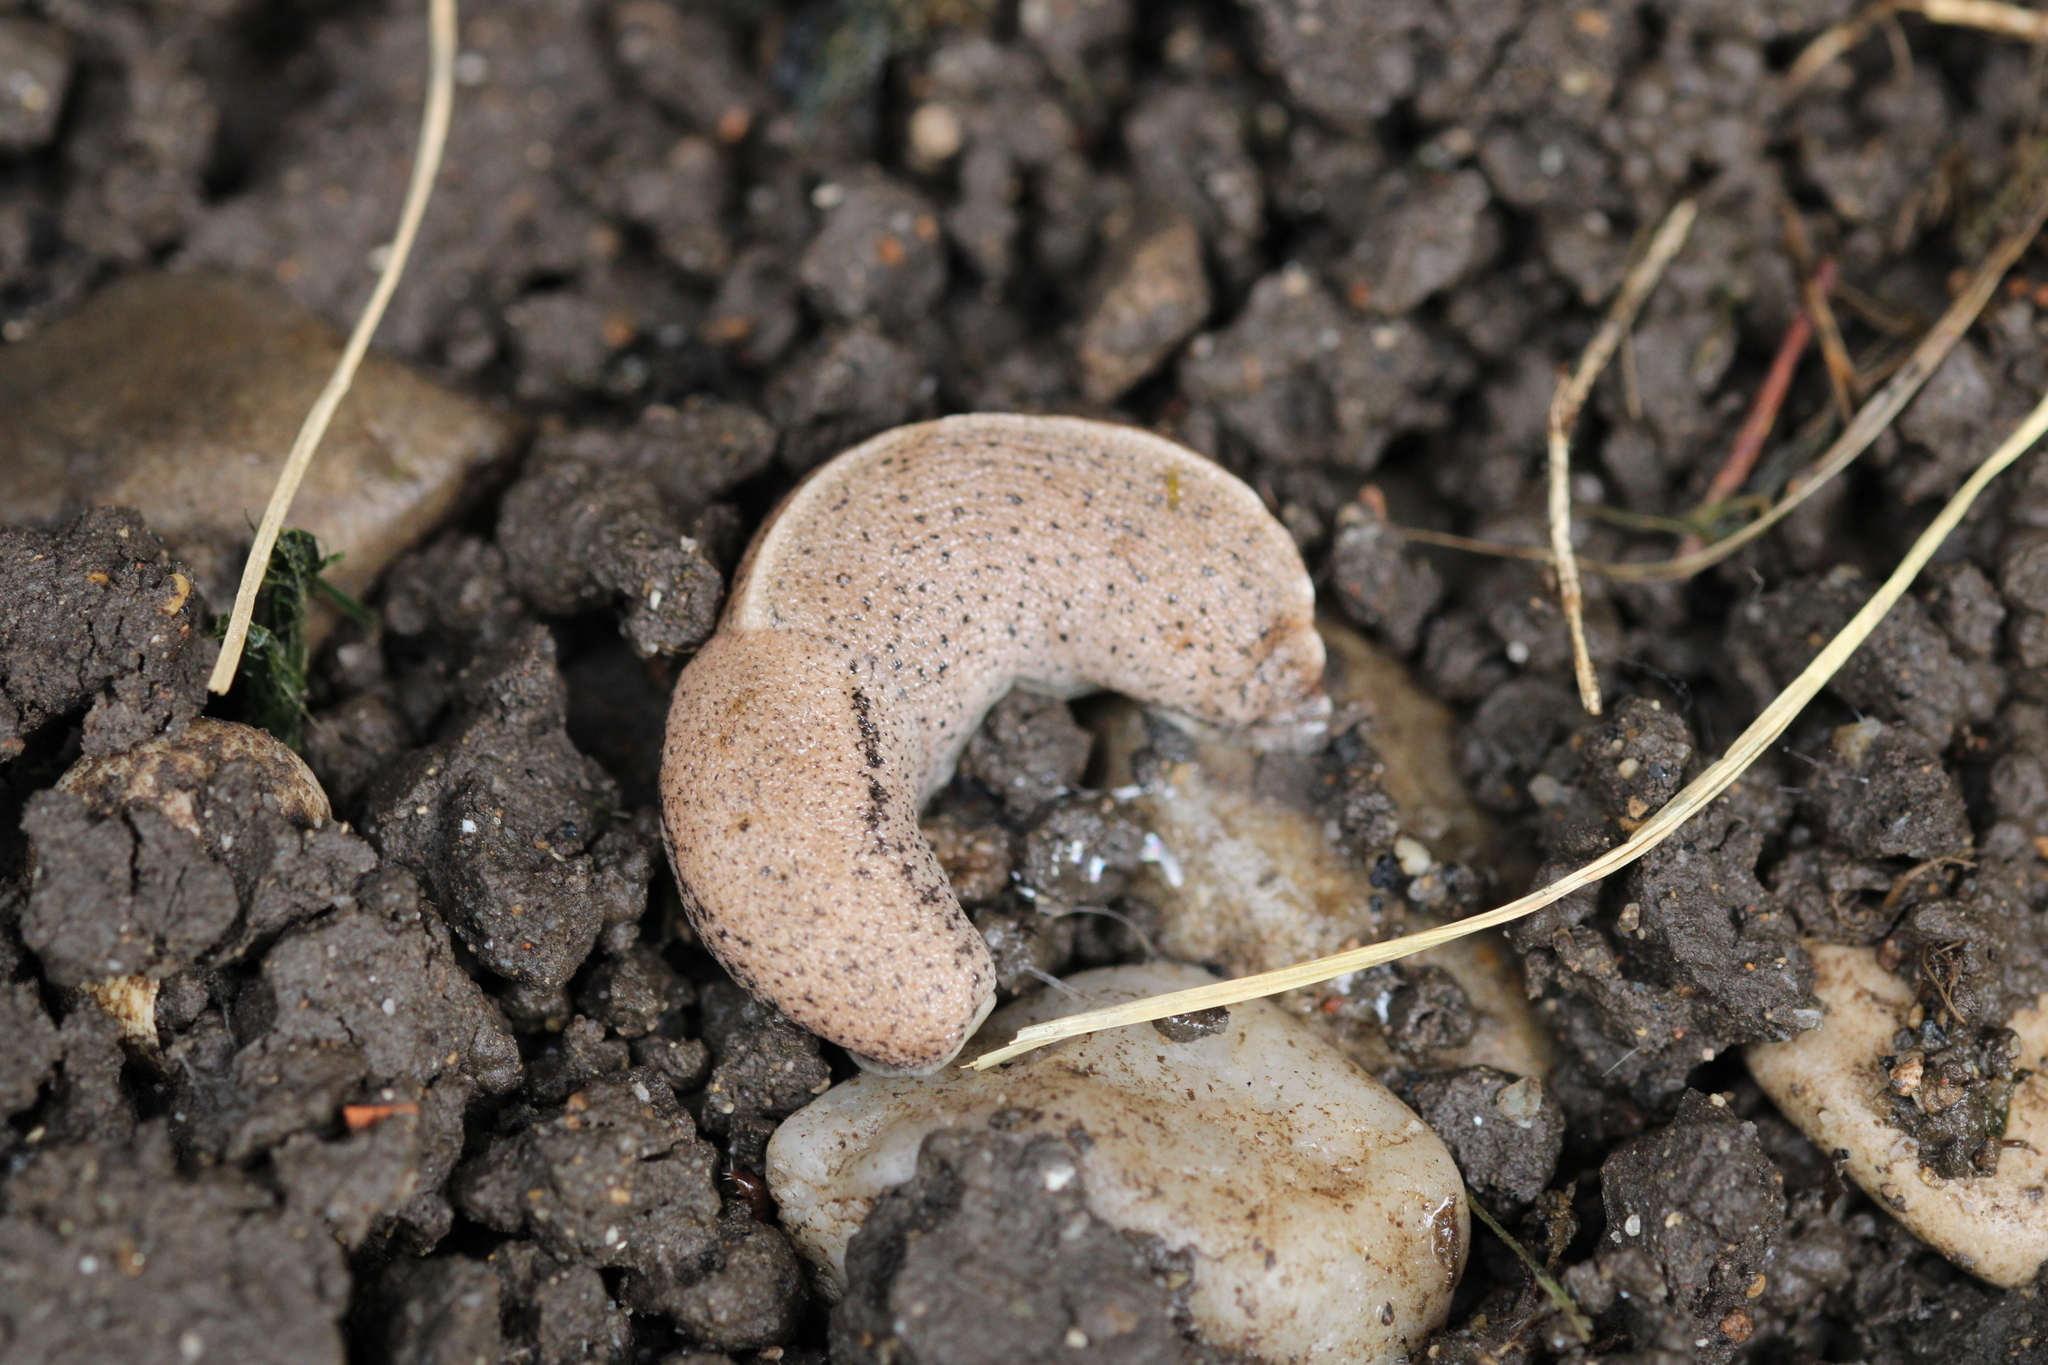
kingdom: Animalia
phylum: Mollusca
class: Gastropoda
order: Stylommatophora
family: Milacidae
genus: Tandonia
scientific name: Tandonia rustica
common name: Bulb-eating slug
